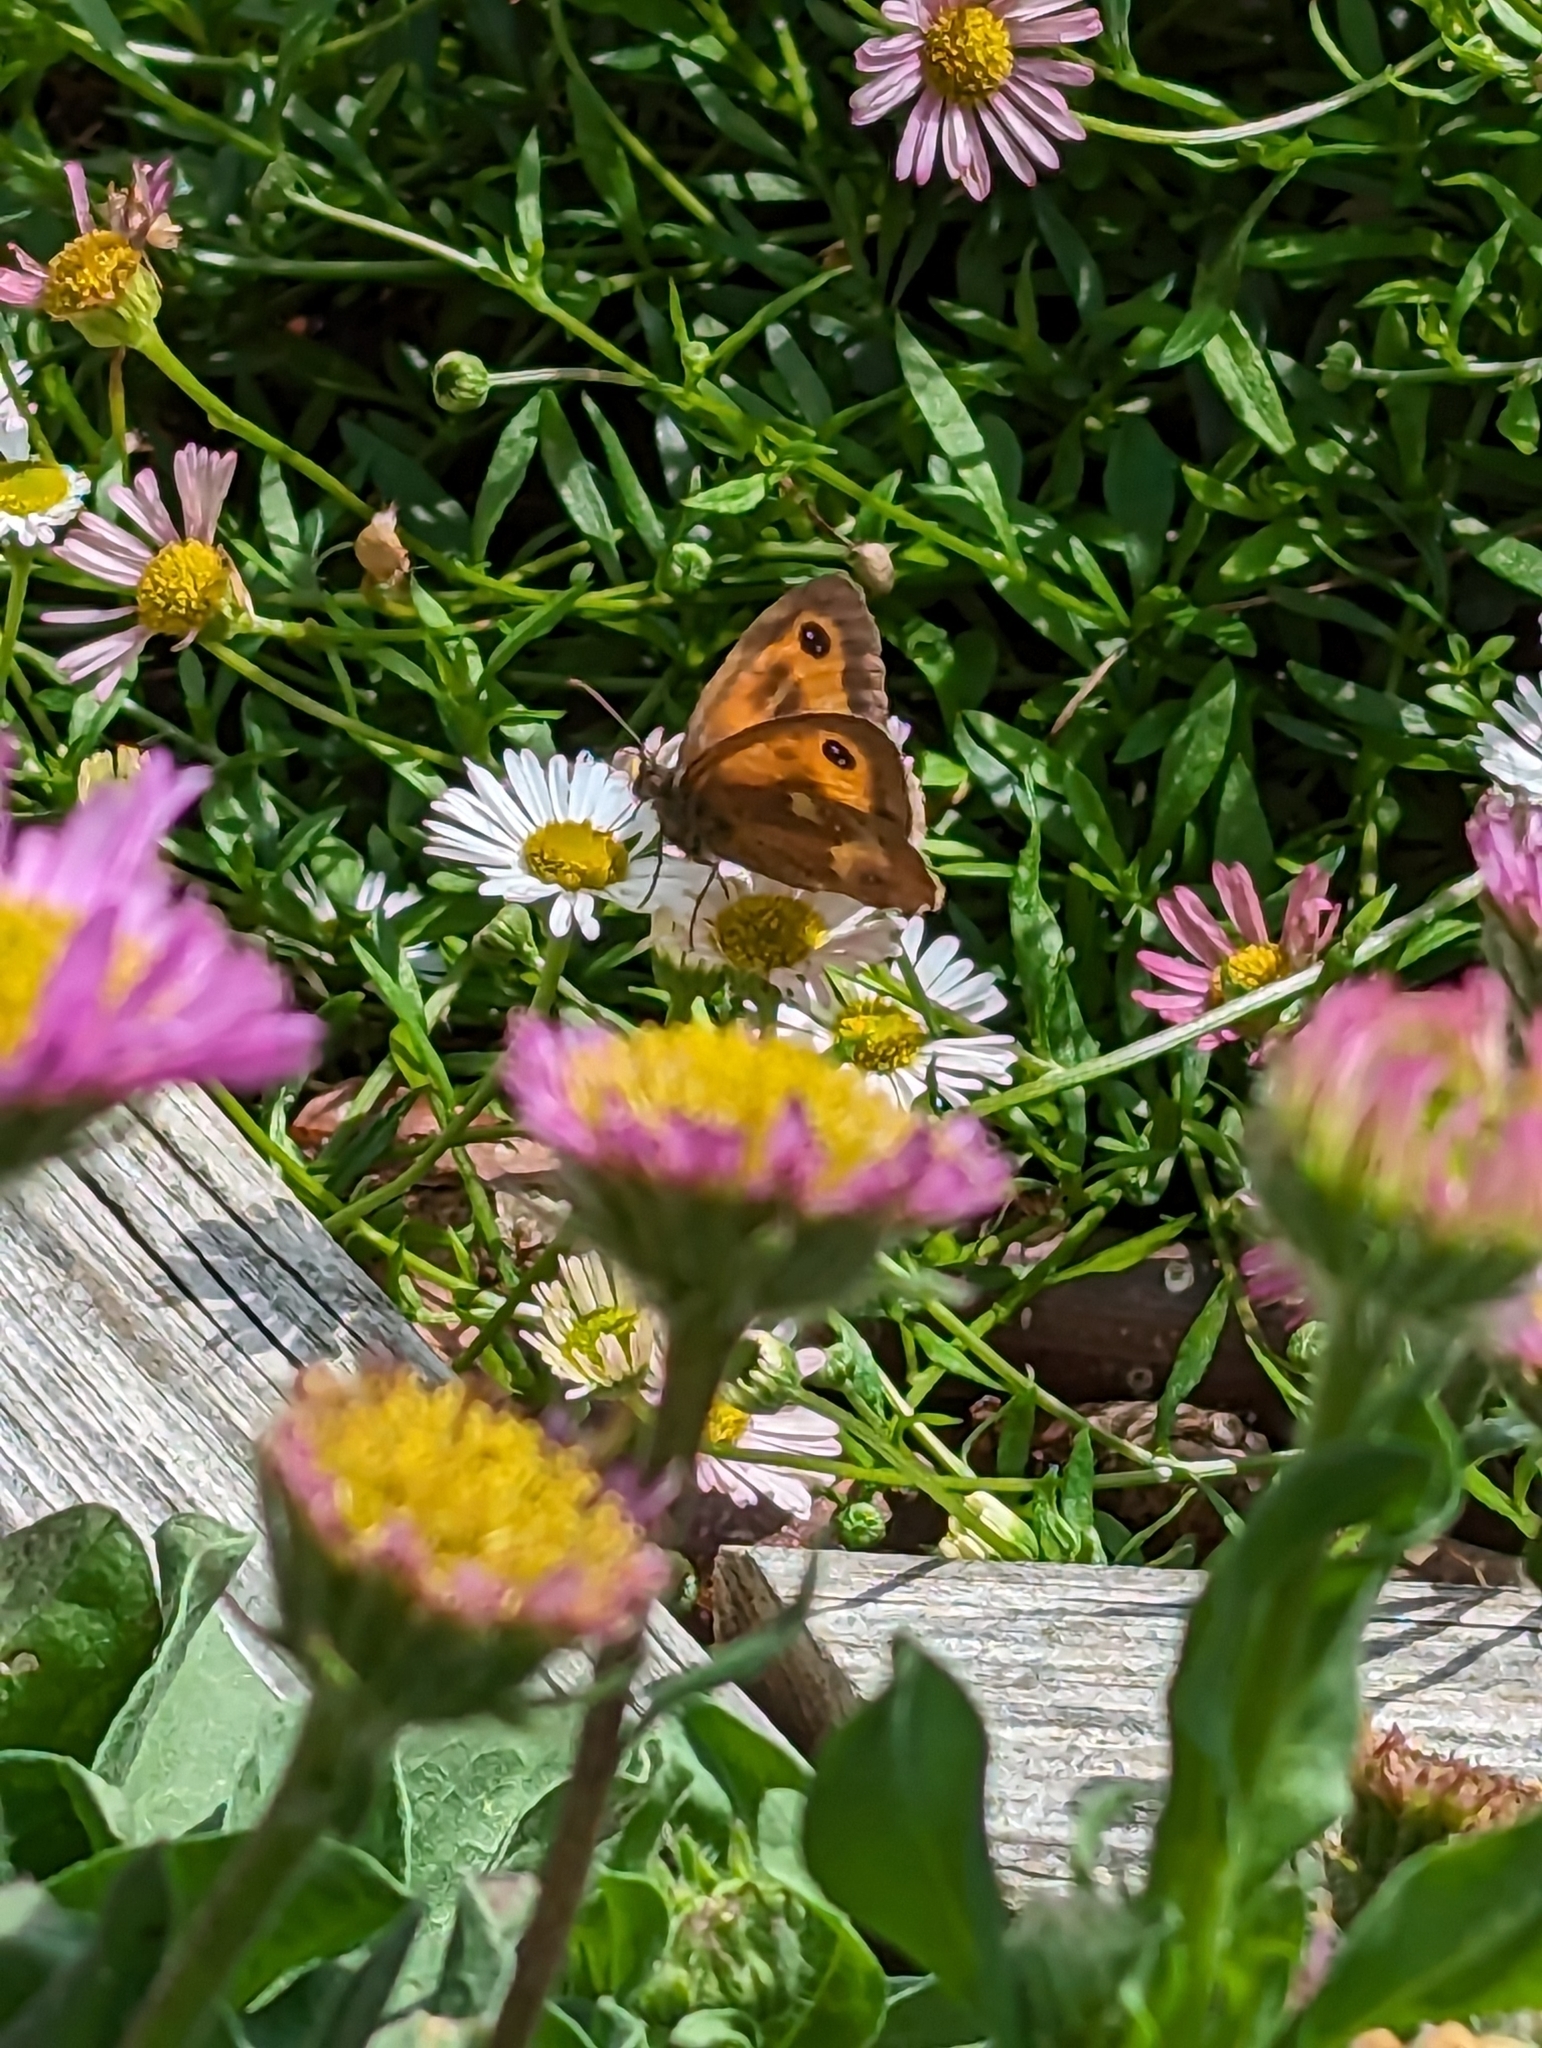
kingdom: Animalia
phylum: Arthropoda
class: Insecta
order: Lepidoptera
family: Nymphalidae
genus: Pyronia
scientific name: Pyronia tithonus
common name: Gatekeeper
